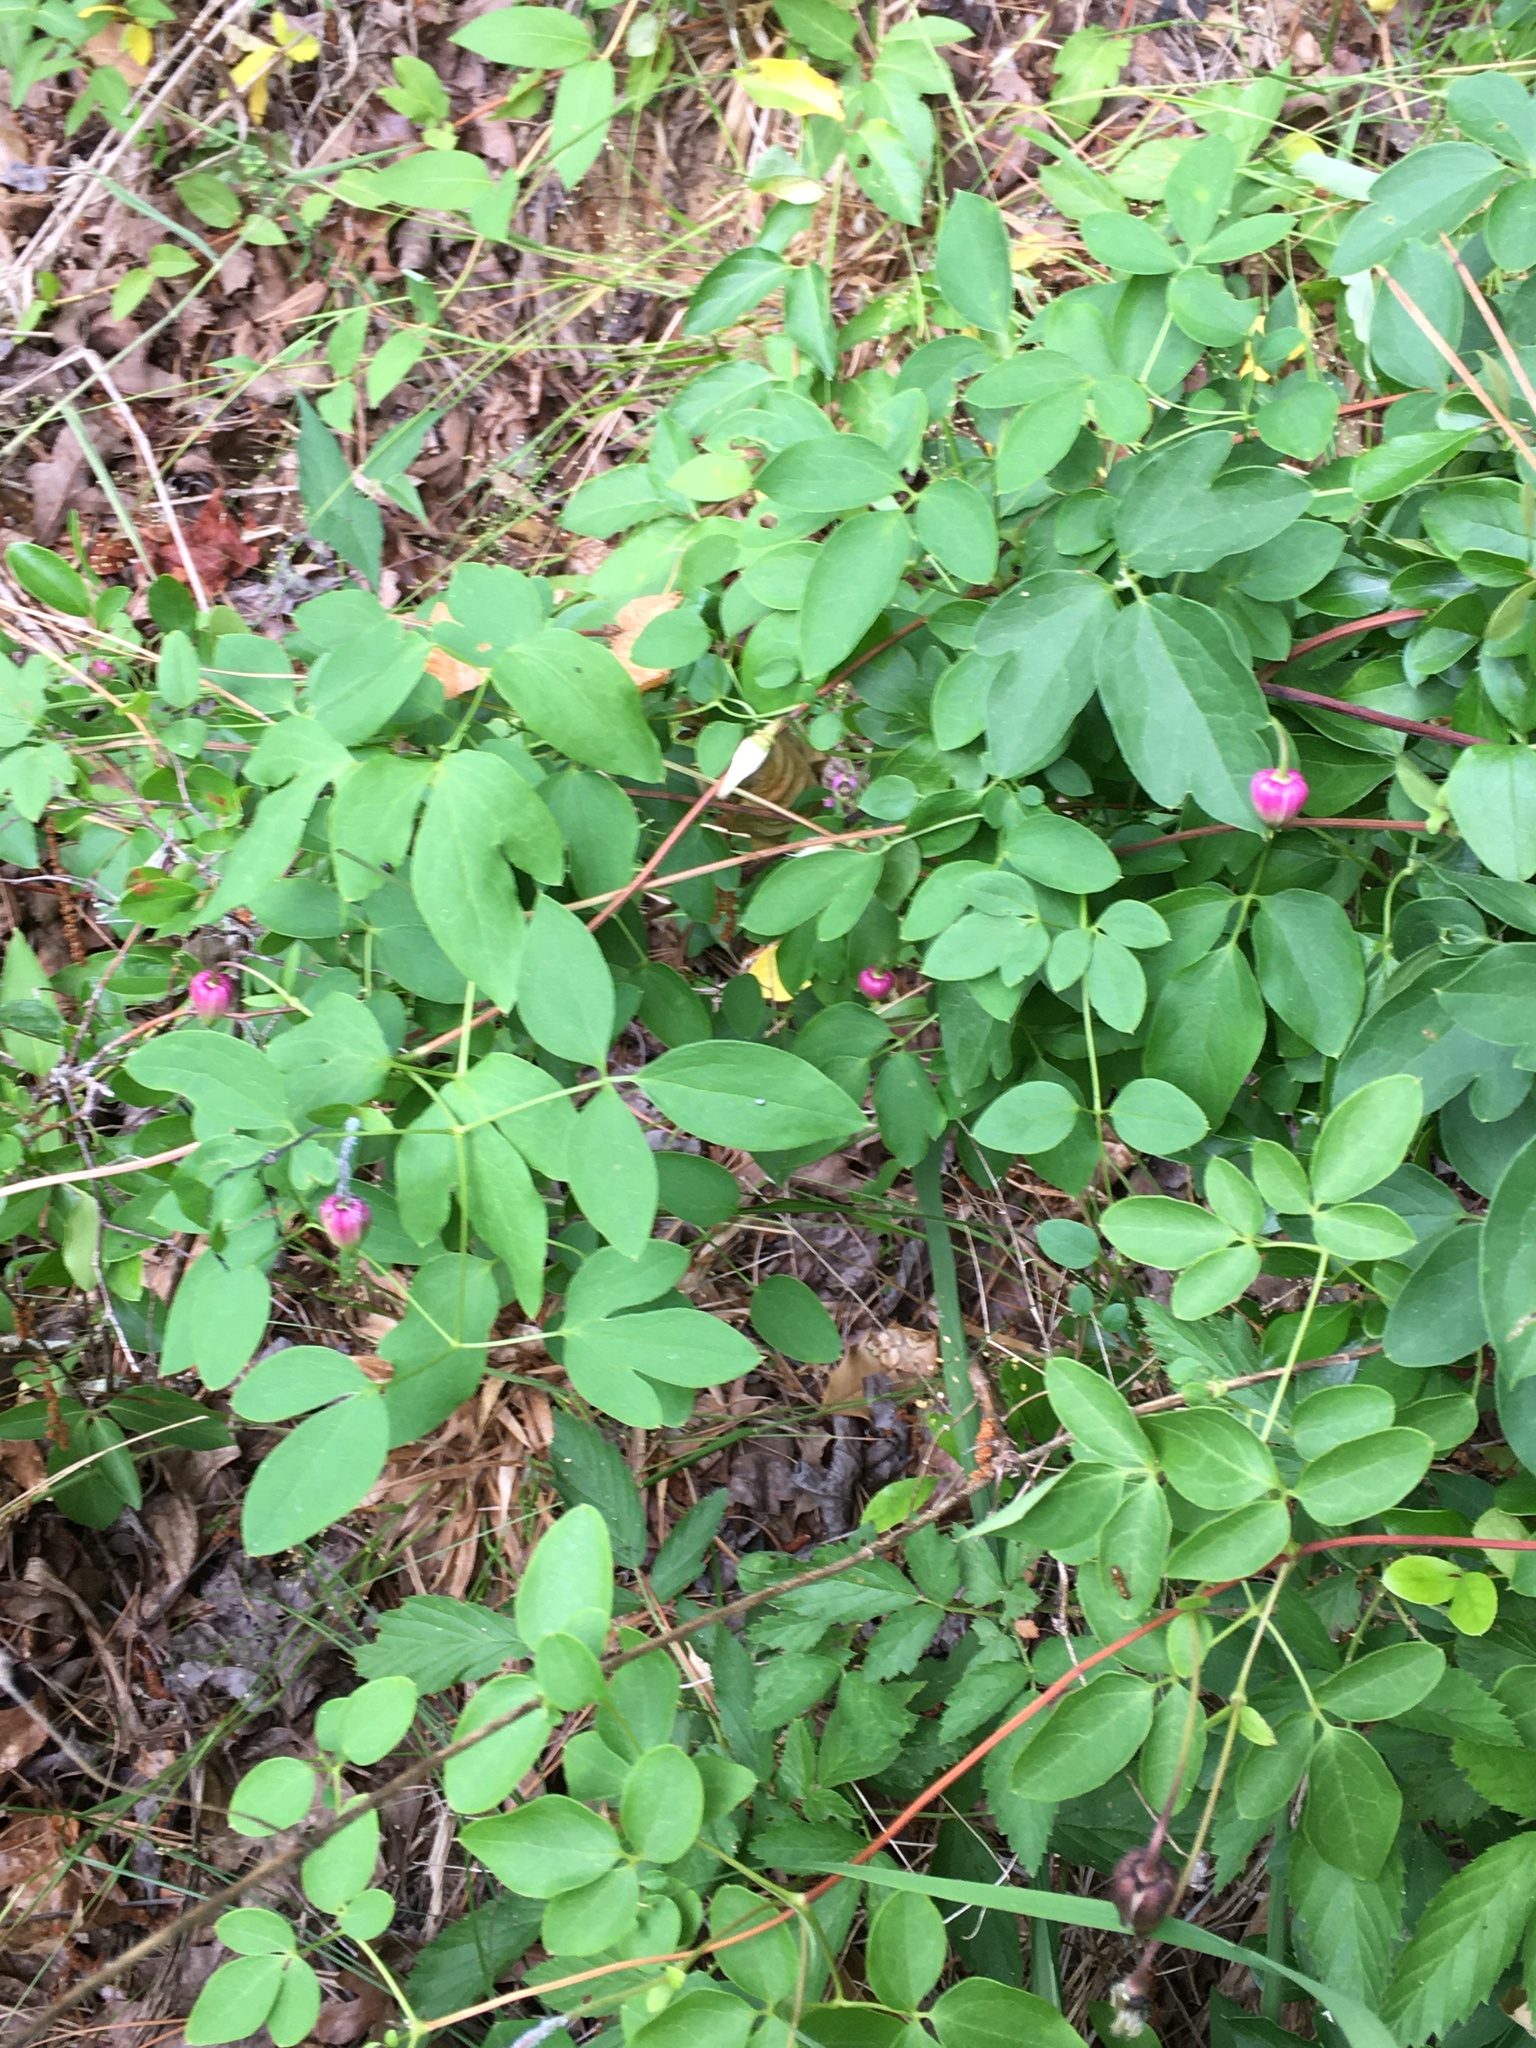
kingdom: Plantae
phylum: Tracheophyta
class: Magnoliopsida
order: Ranunculales
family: Ranunculaceae
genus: Clematis
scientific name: Clematis viorna
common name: Leather-flower
